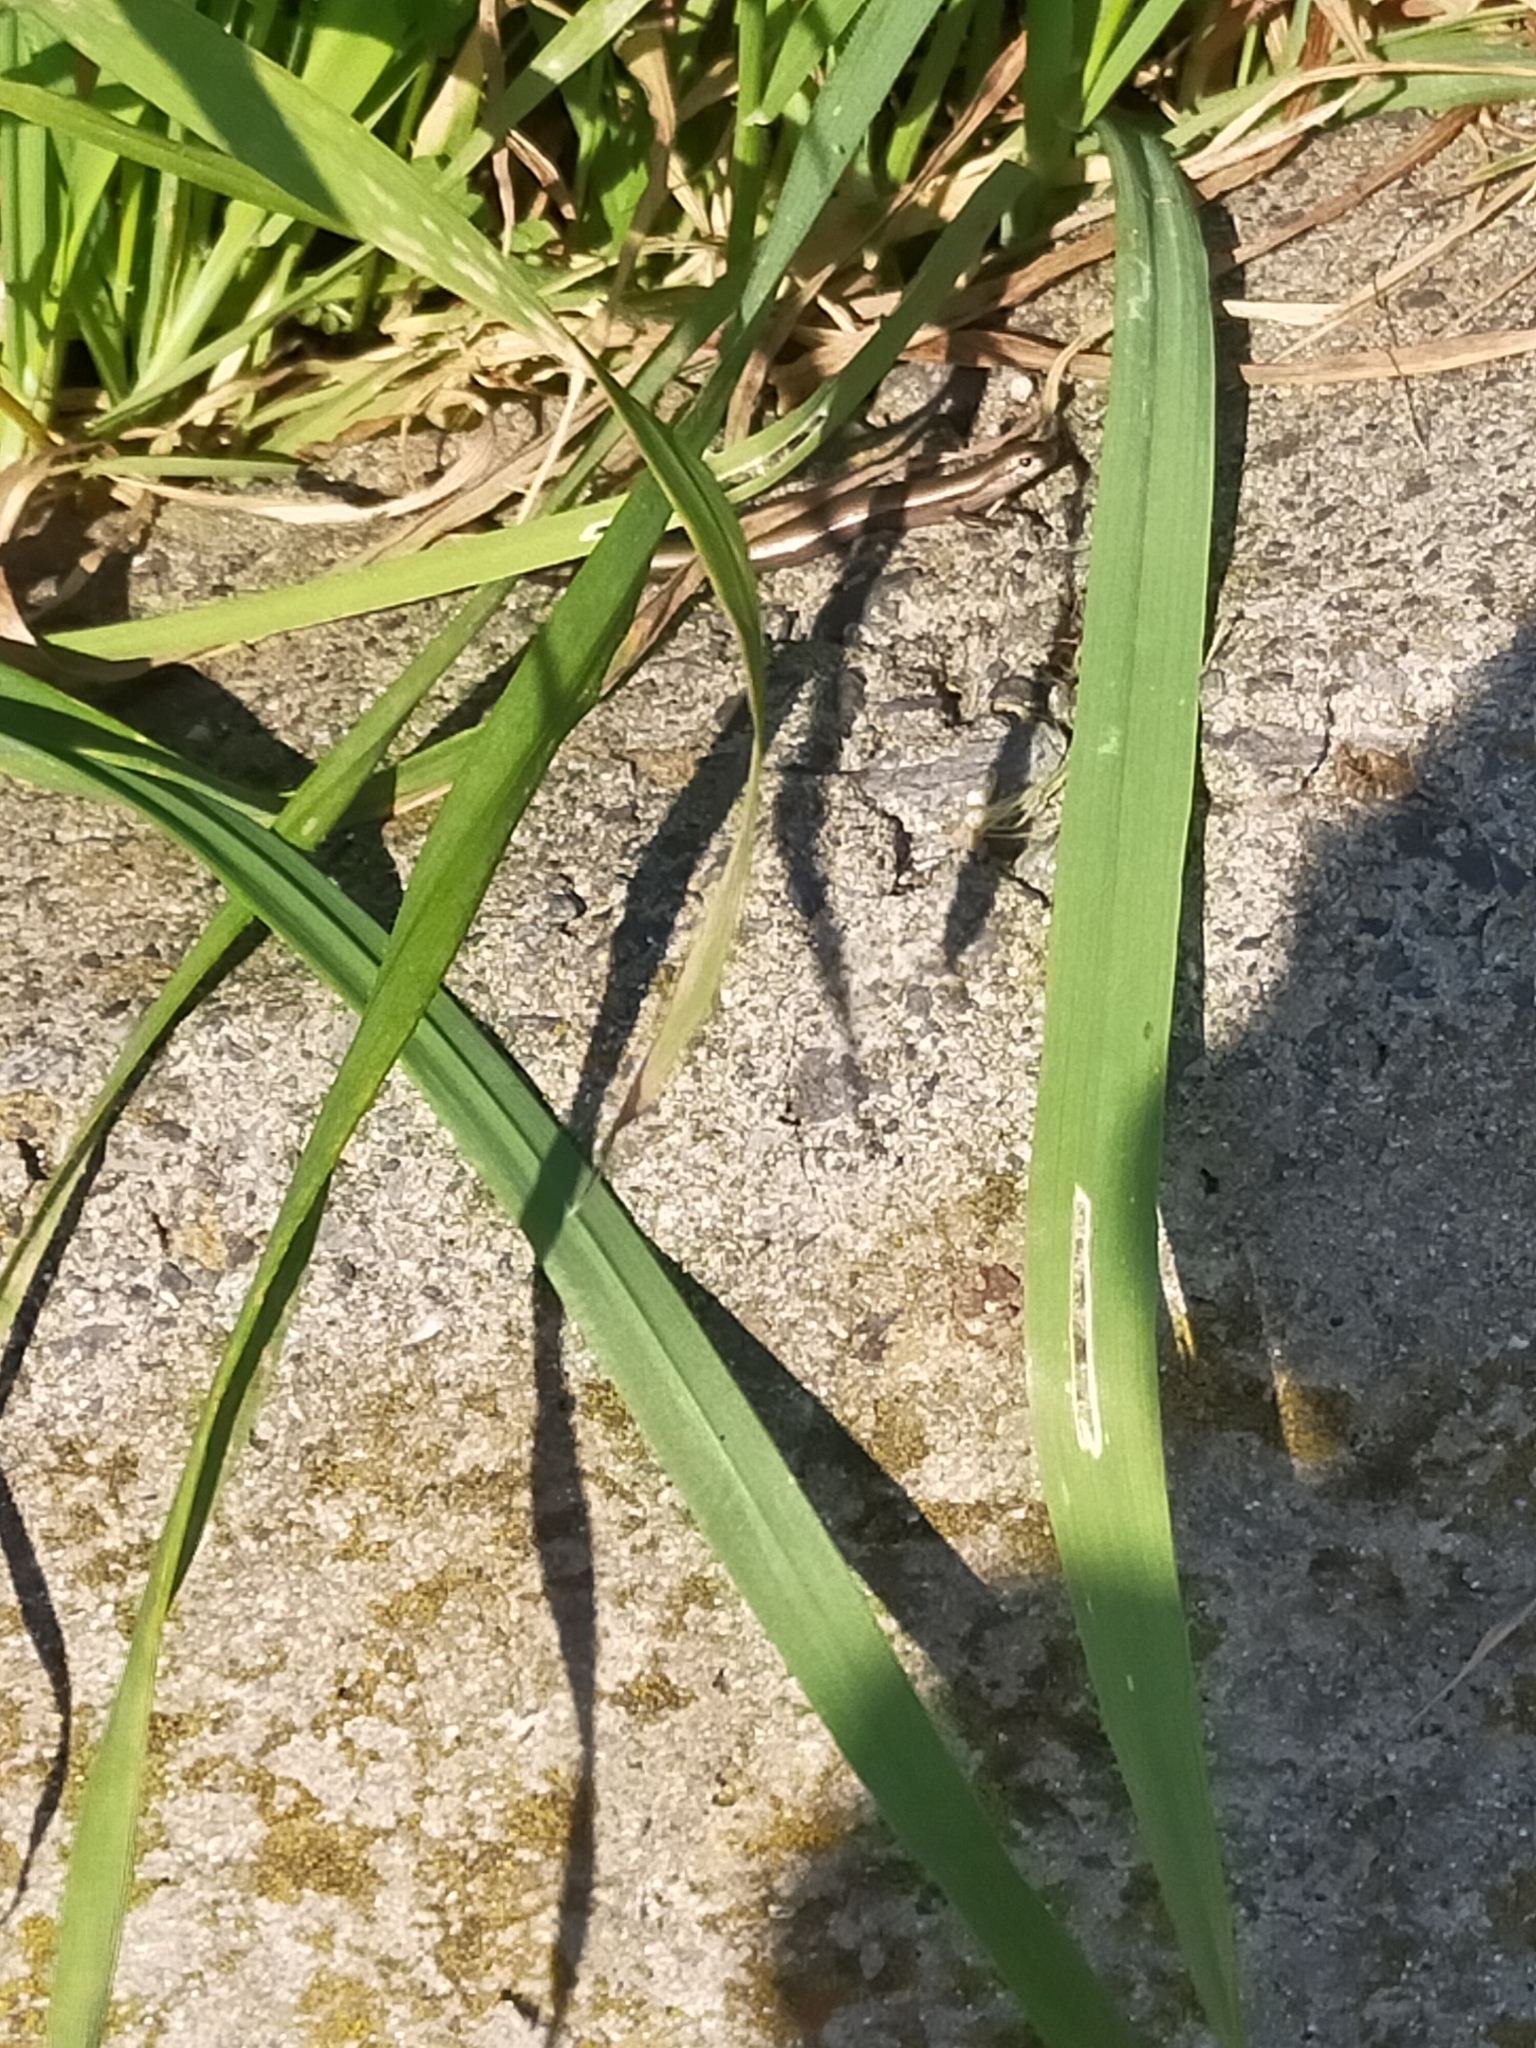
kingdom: Animalia
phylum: Chordata
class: Squamata
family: Scincidae
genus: Ablepharus
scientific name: Ablepharus kitaibelii
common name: Juniper skink
